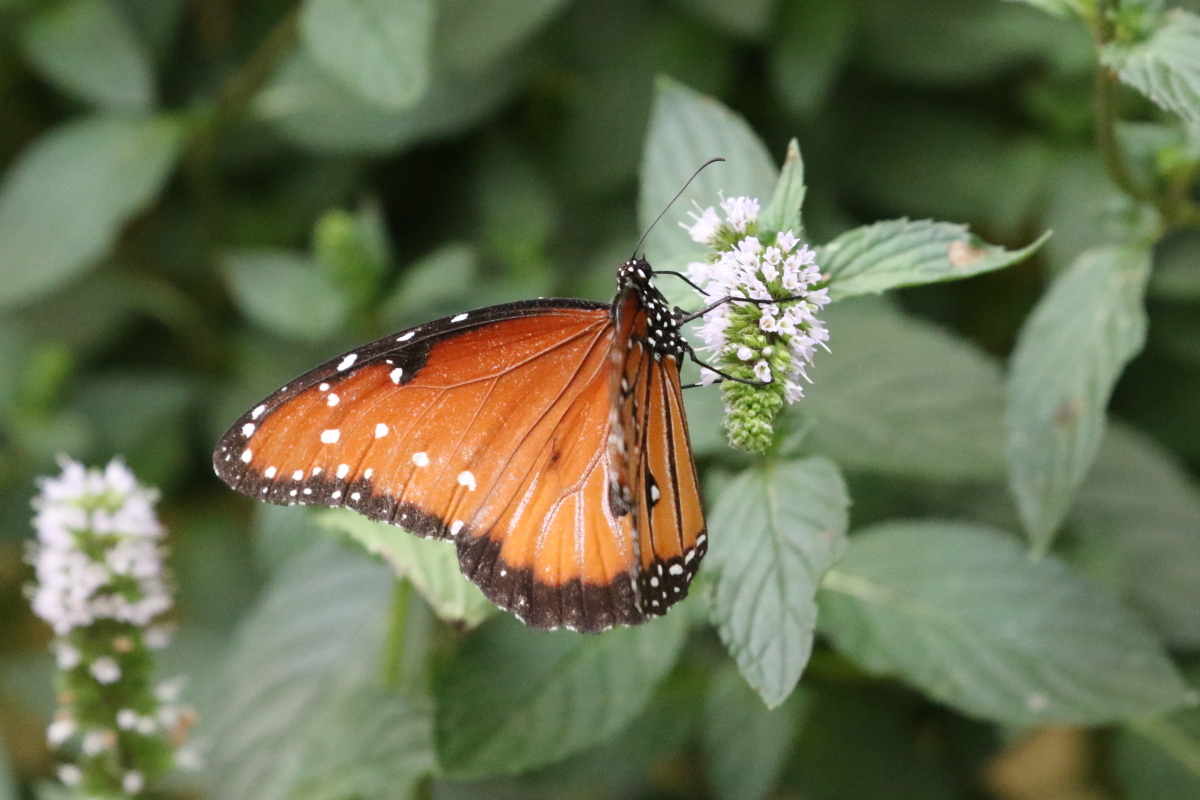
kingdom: Animalia
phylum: Arthropoda
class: Insecta
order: Lepidoptera
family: Nymphalidae
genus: Danaus
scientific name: Danaus gilippus
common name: Queen
